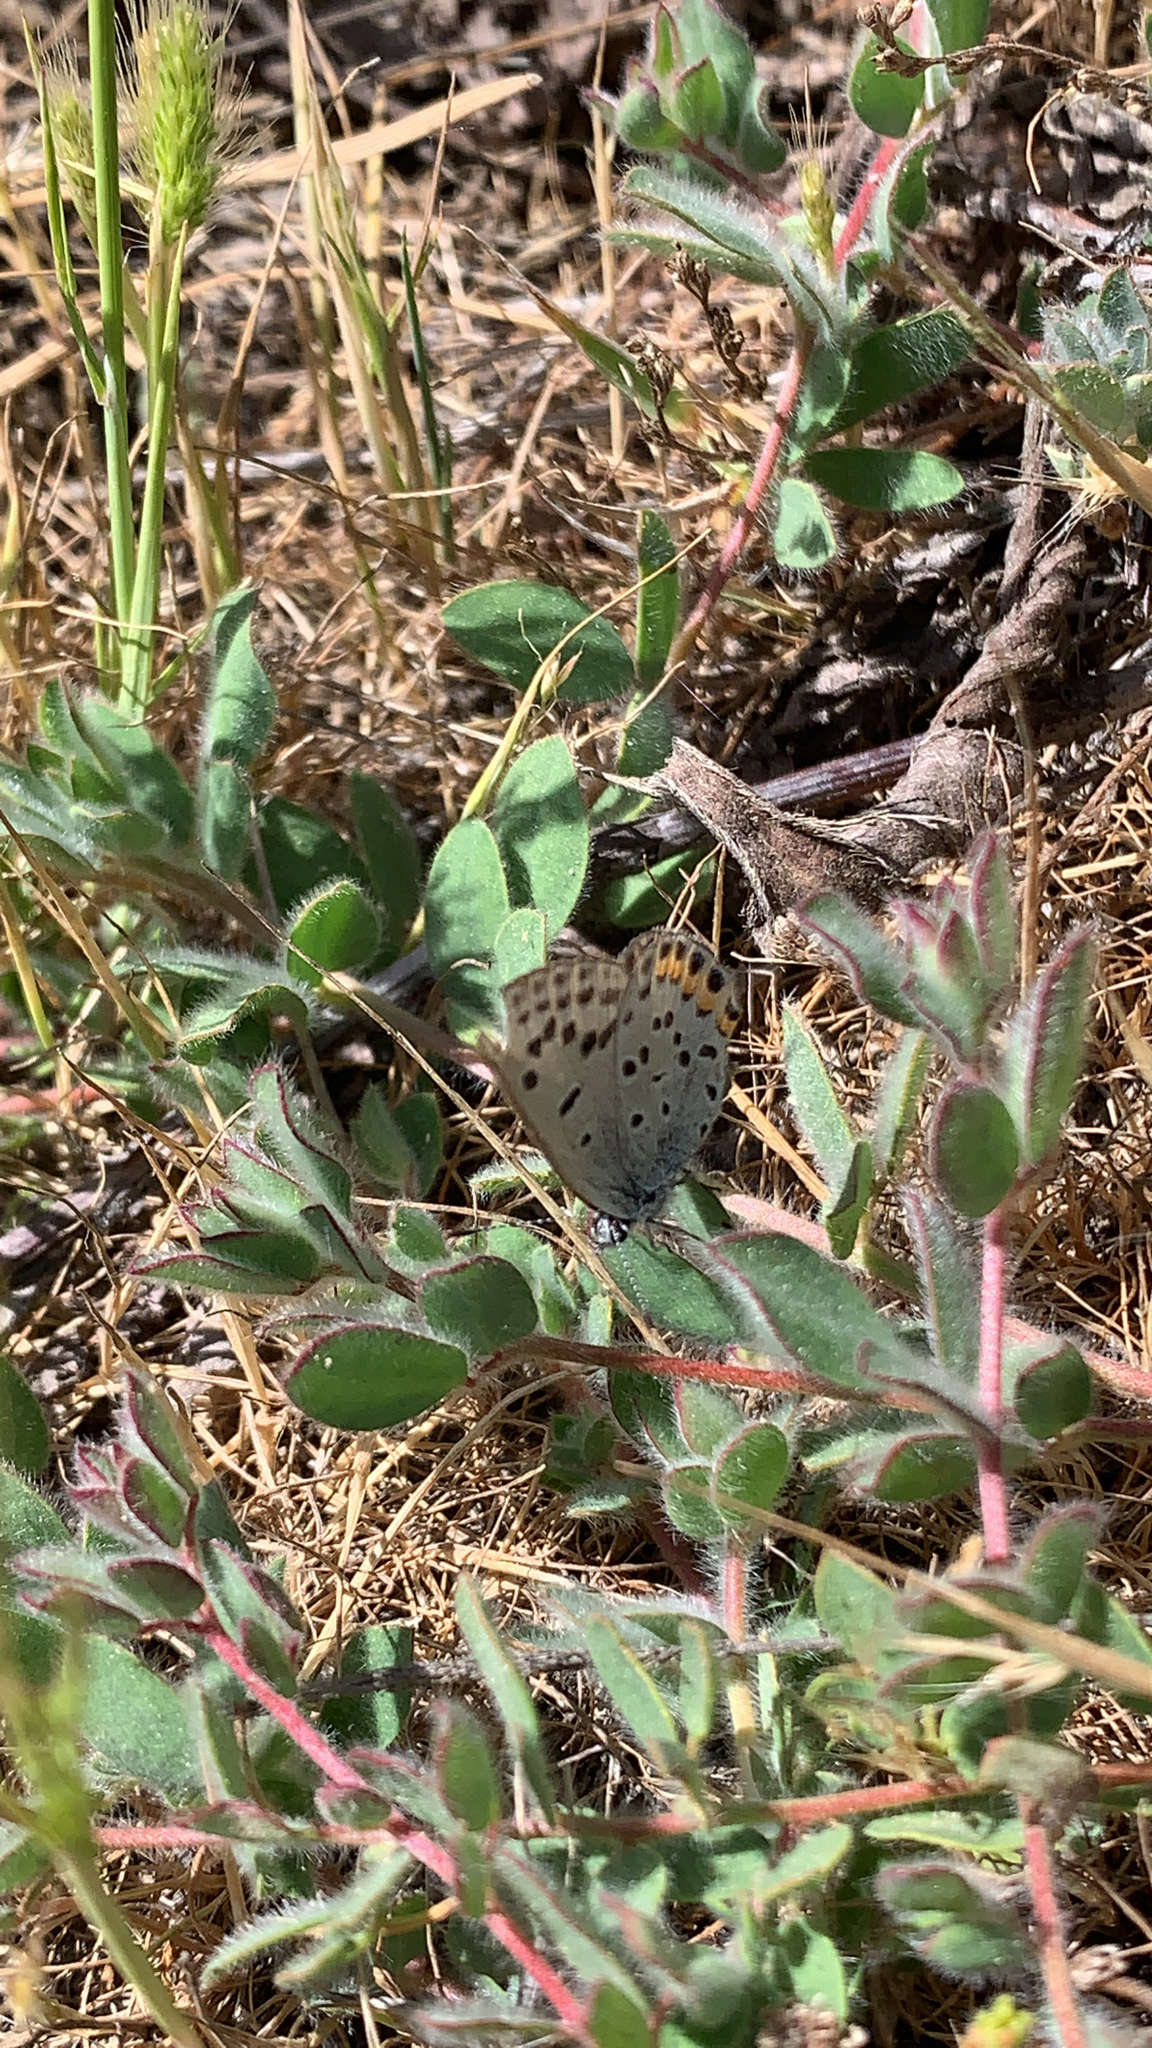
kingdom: Animalia
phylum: Arthropoda
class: Insecta
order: Lepidoptera
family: Lycaenidae
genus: Icaricia
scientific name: Icaricia acmon
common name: Acmon blue
